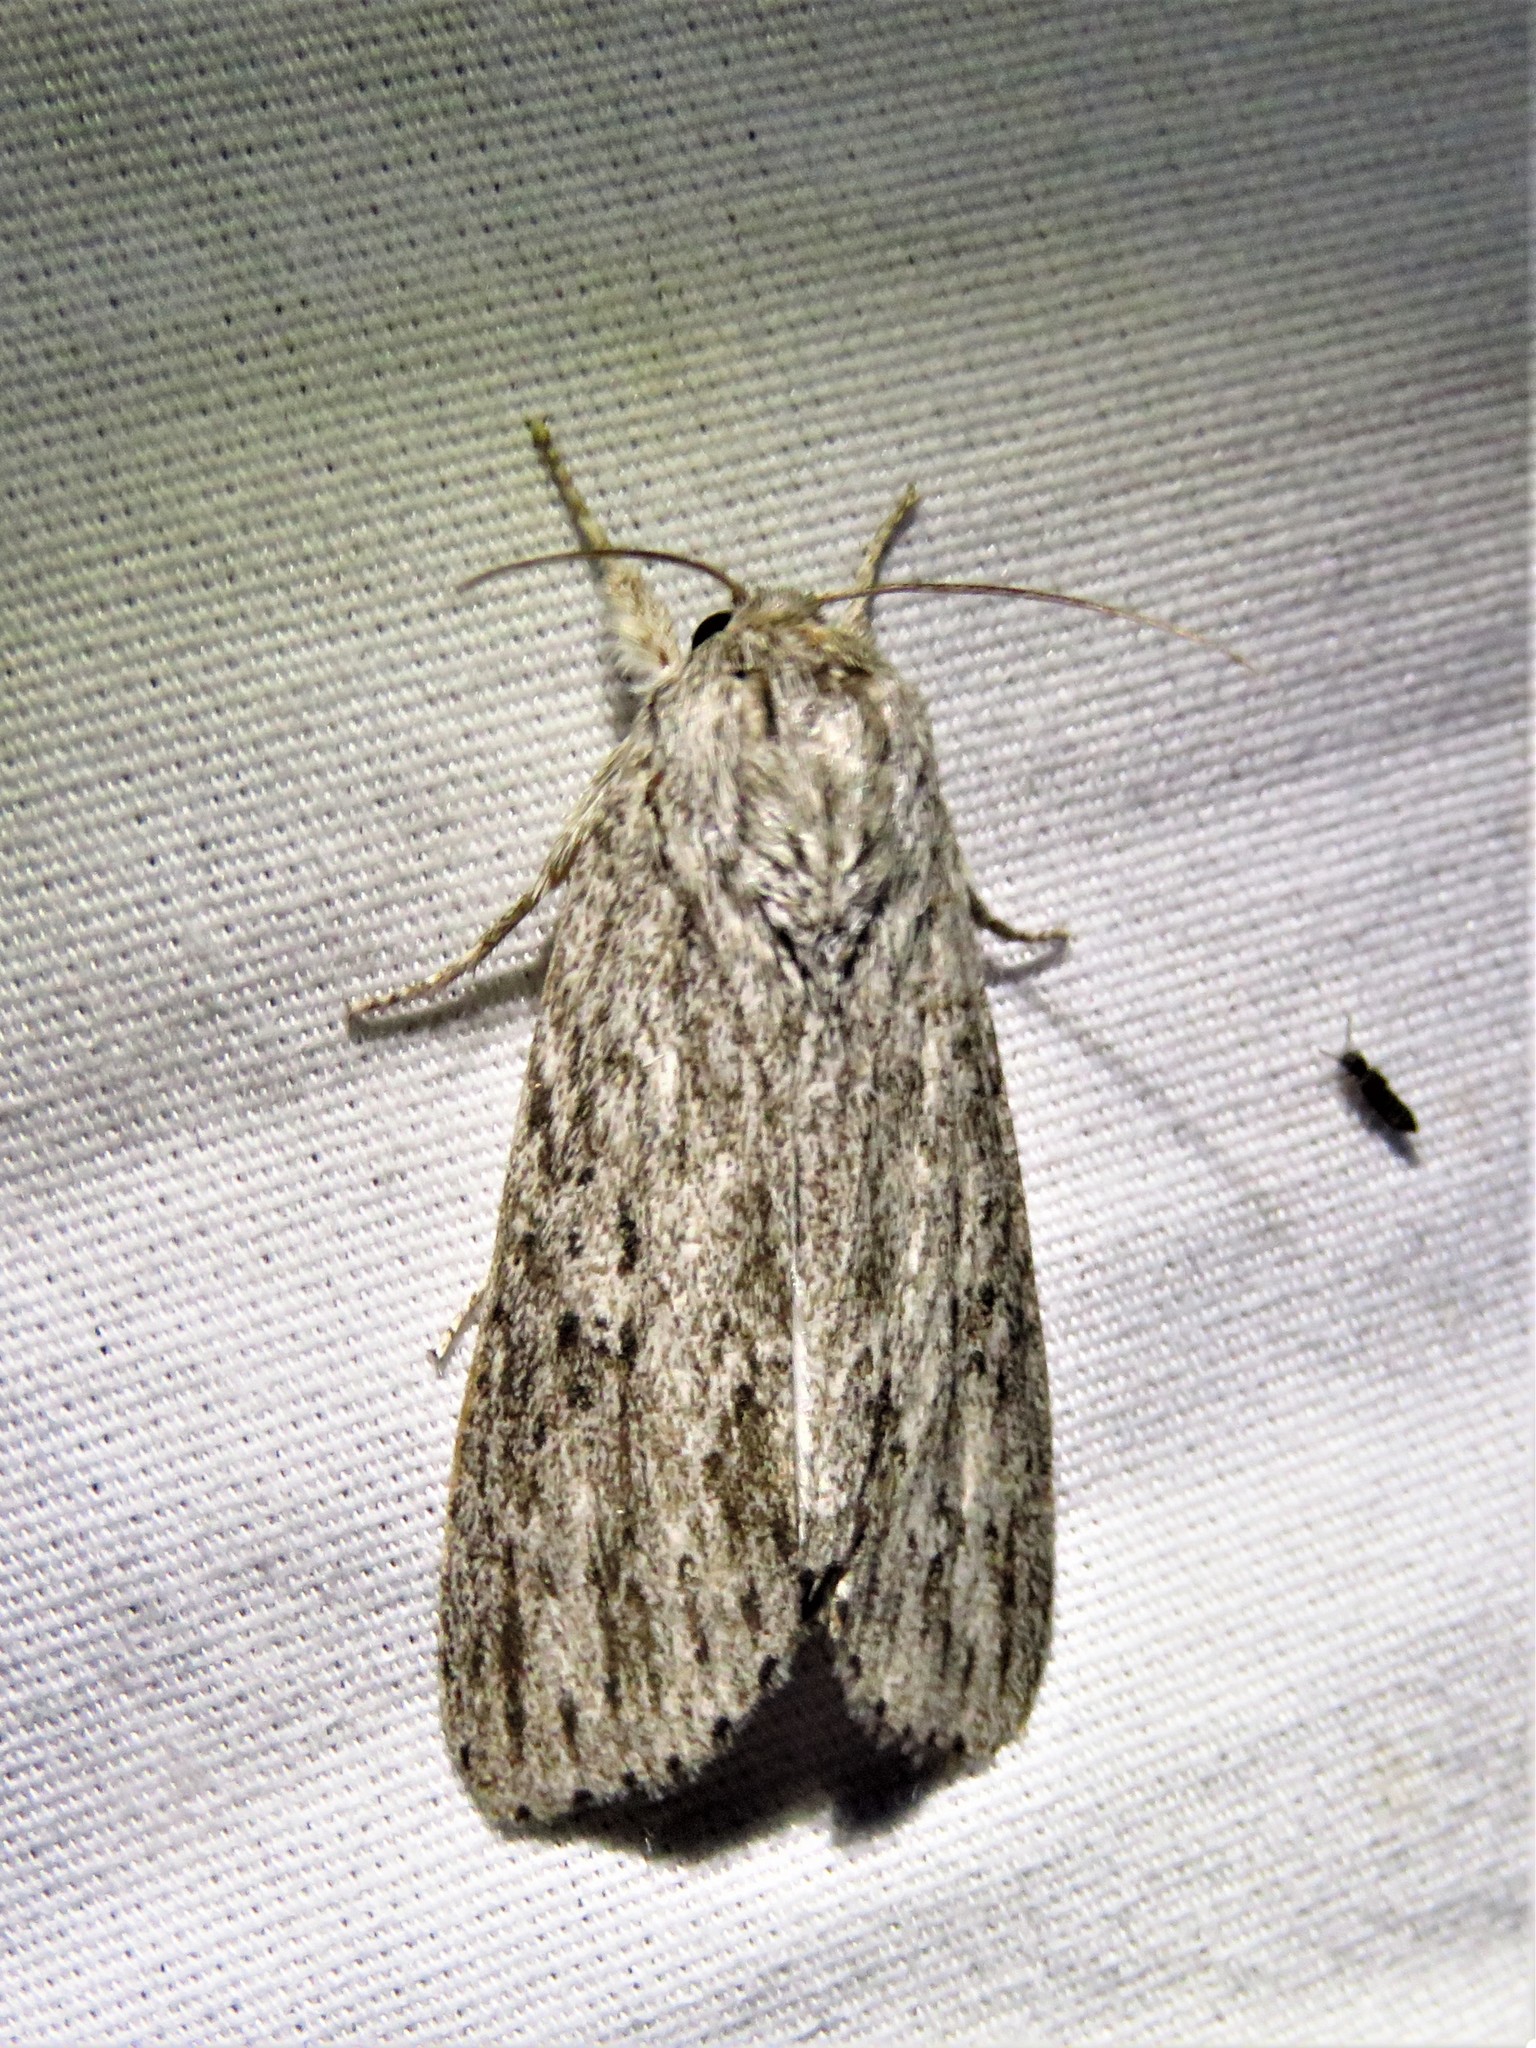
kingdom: Animalia
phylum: Arthropoda
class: Insecta
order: Lepidoptera
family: Noctuidae
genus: Acronicta
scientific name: Acronicta oblinita
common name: Smeared dagger
